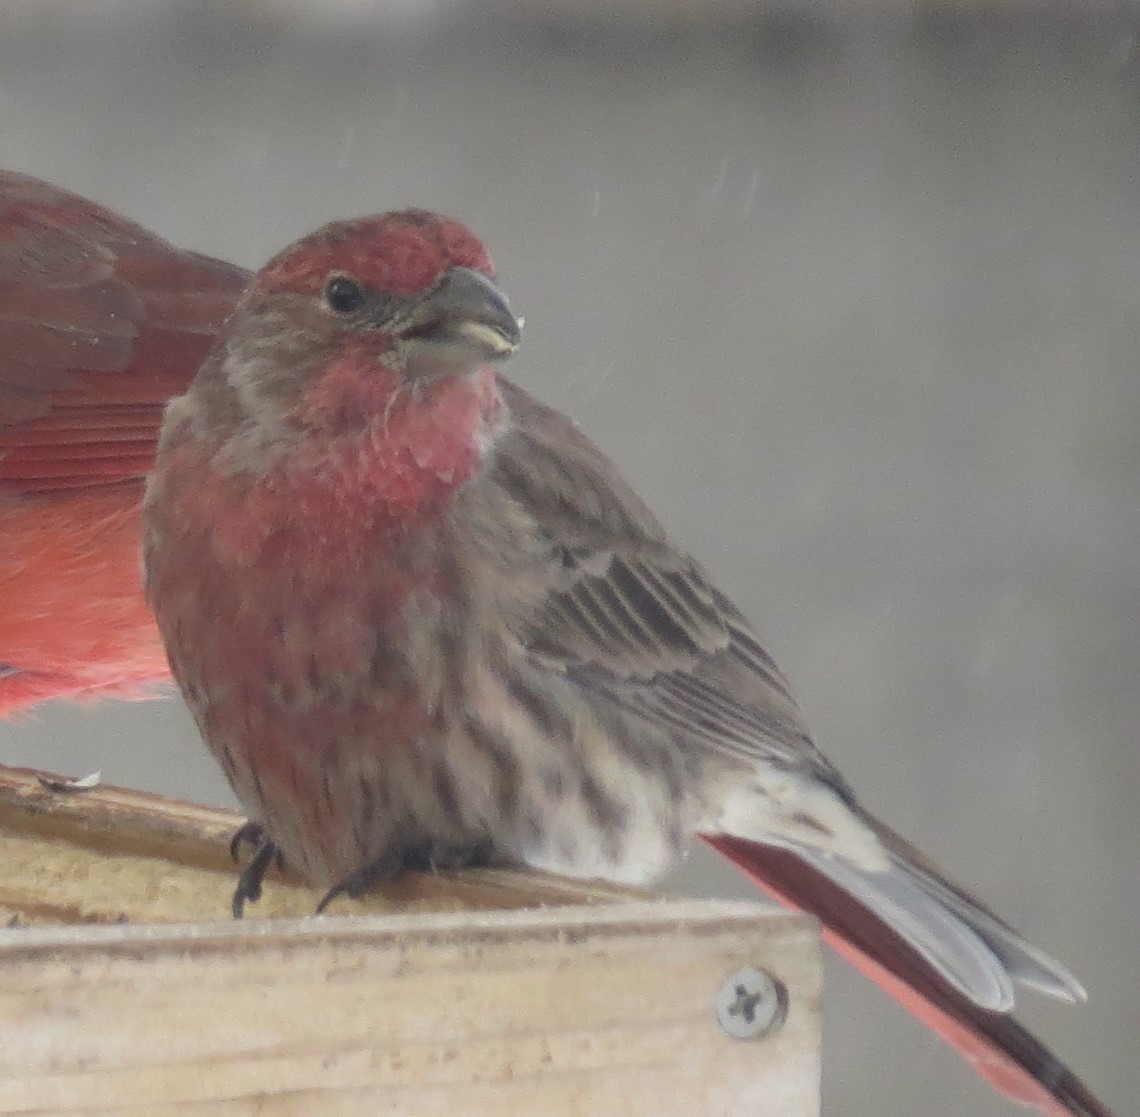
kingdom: Animalia
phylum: Chordata
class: Aves
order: Passeriformes
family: Fringillidae
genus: Haemorhous
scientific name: Haemorhous mexicanus
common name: House finch
